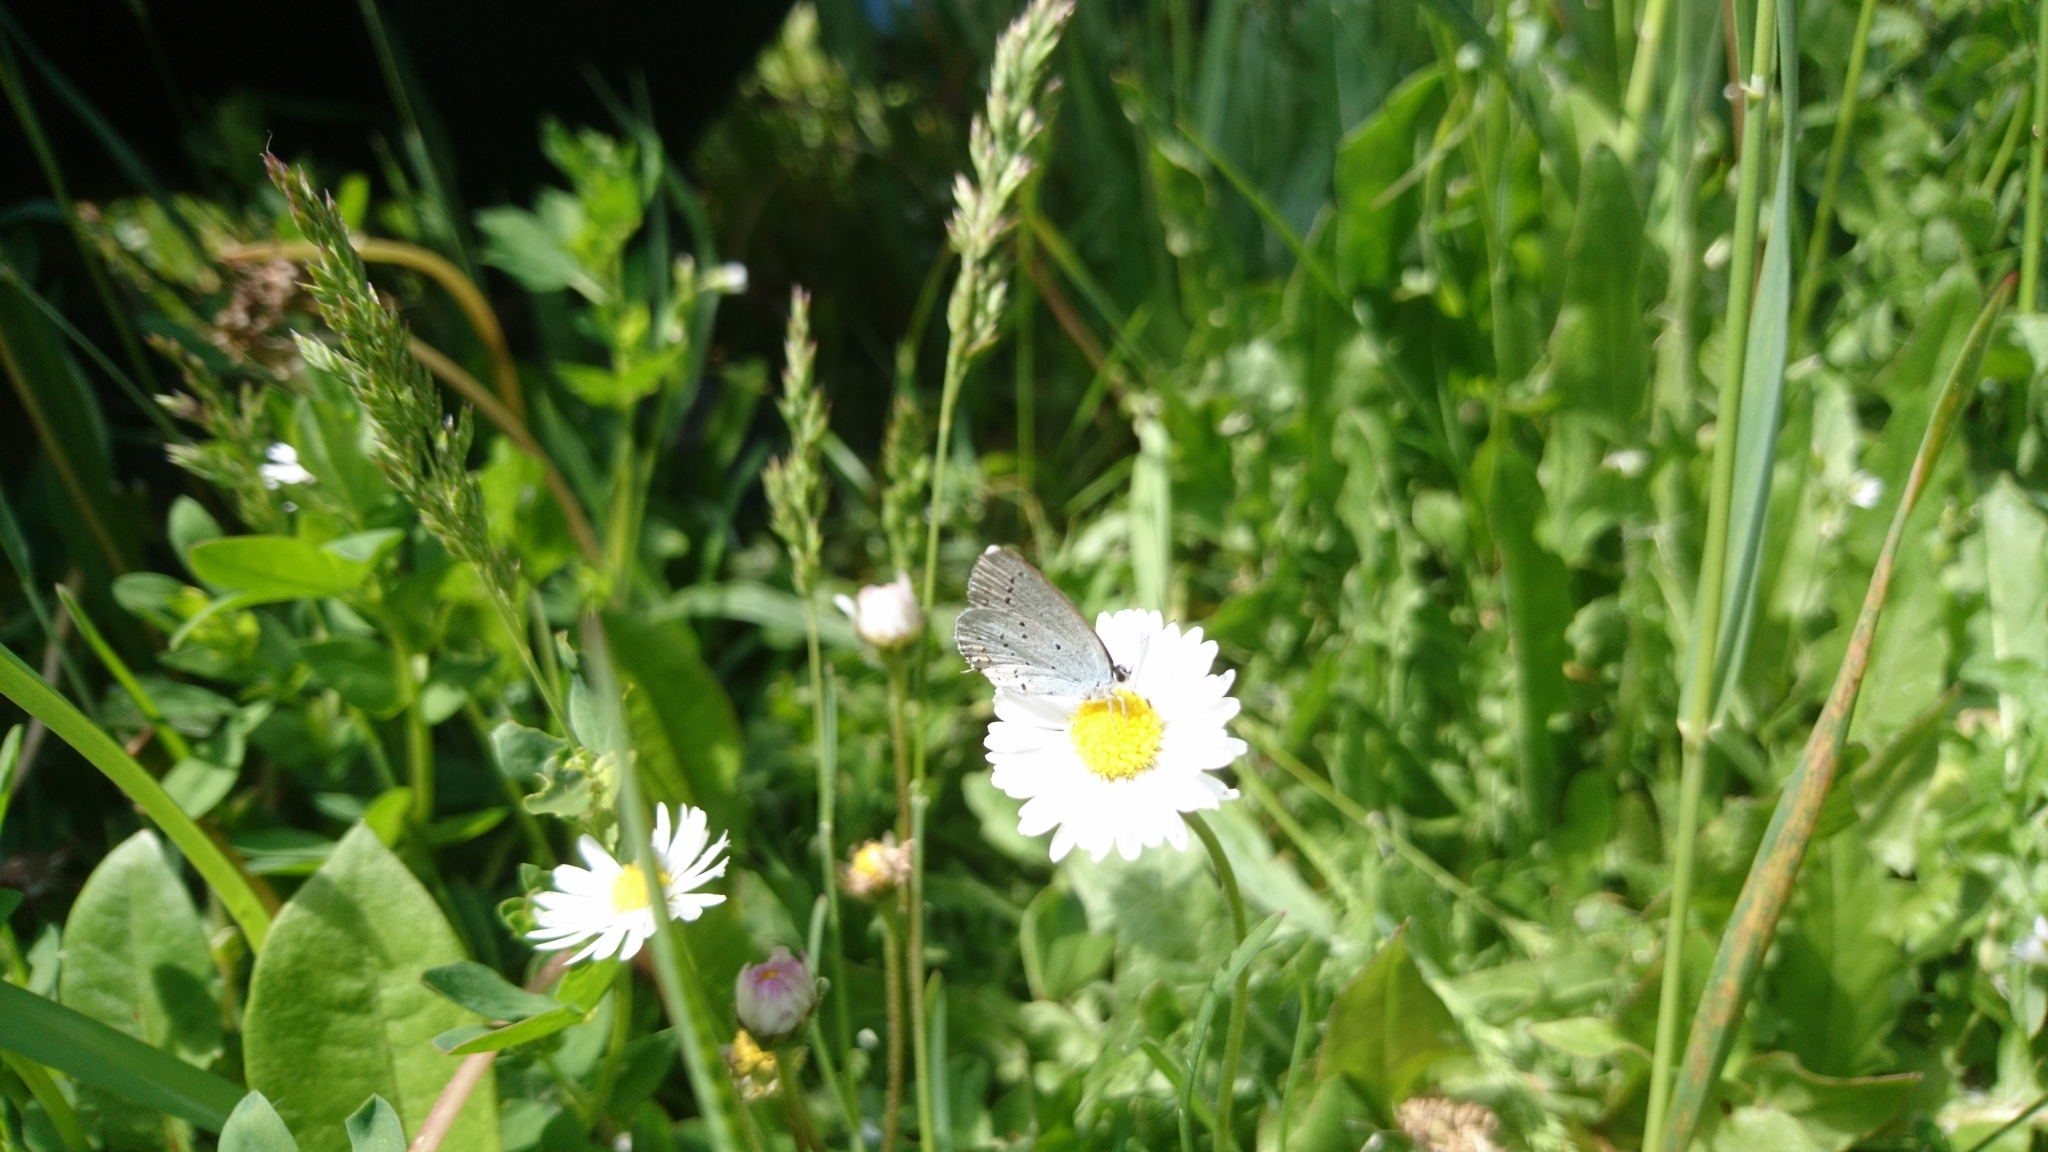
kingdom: Animalia
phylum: Arthropoda
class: Insecta
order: Lepidoptera
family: Lycaenidae
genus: Elkalyce
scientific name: Elkalyce argiades
